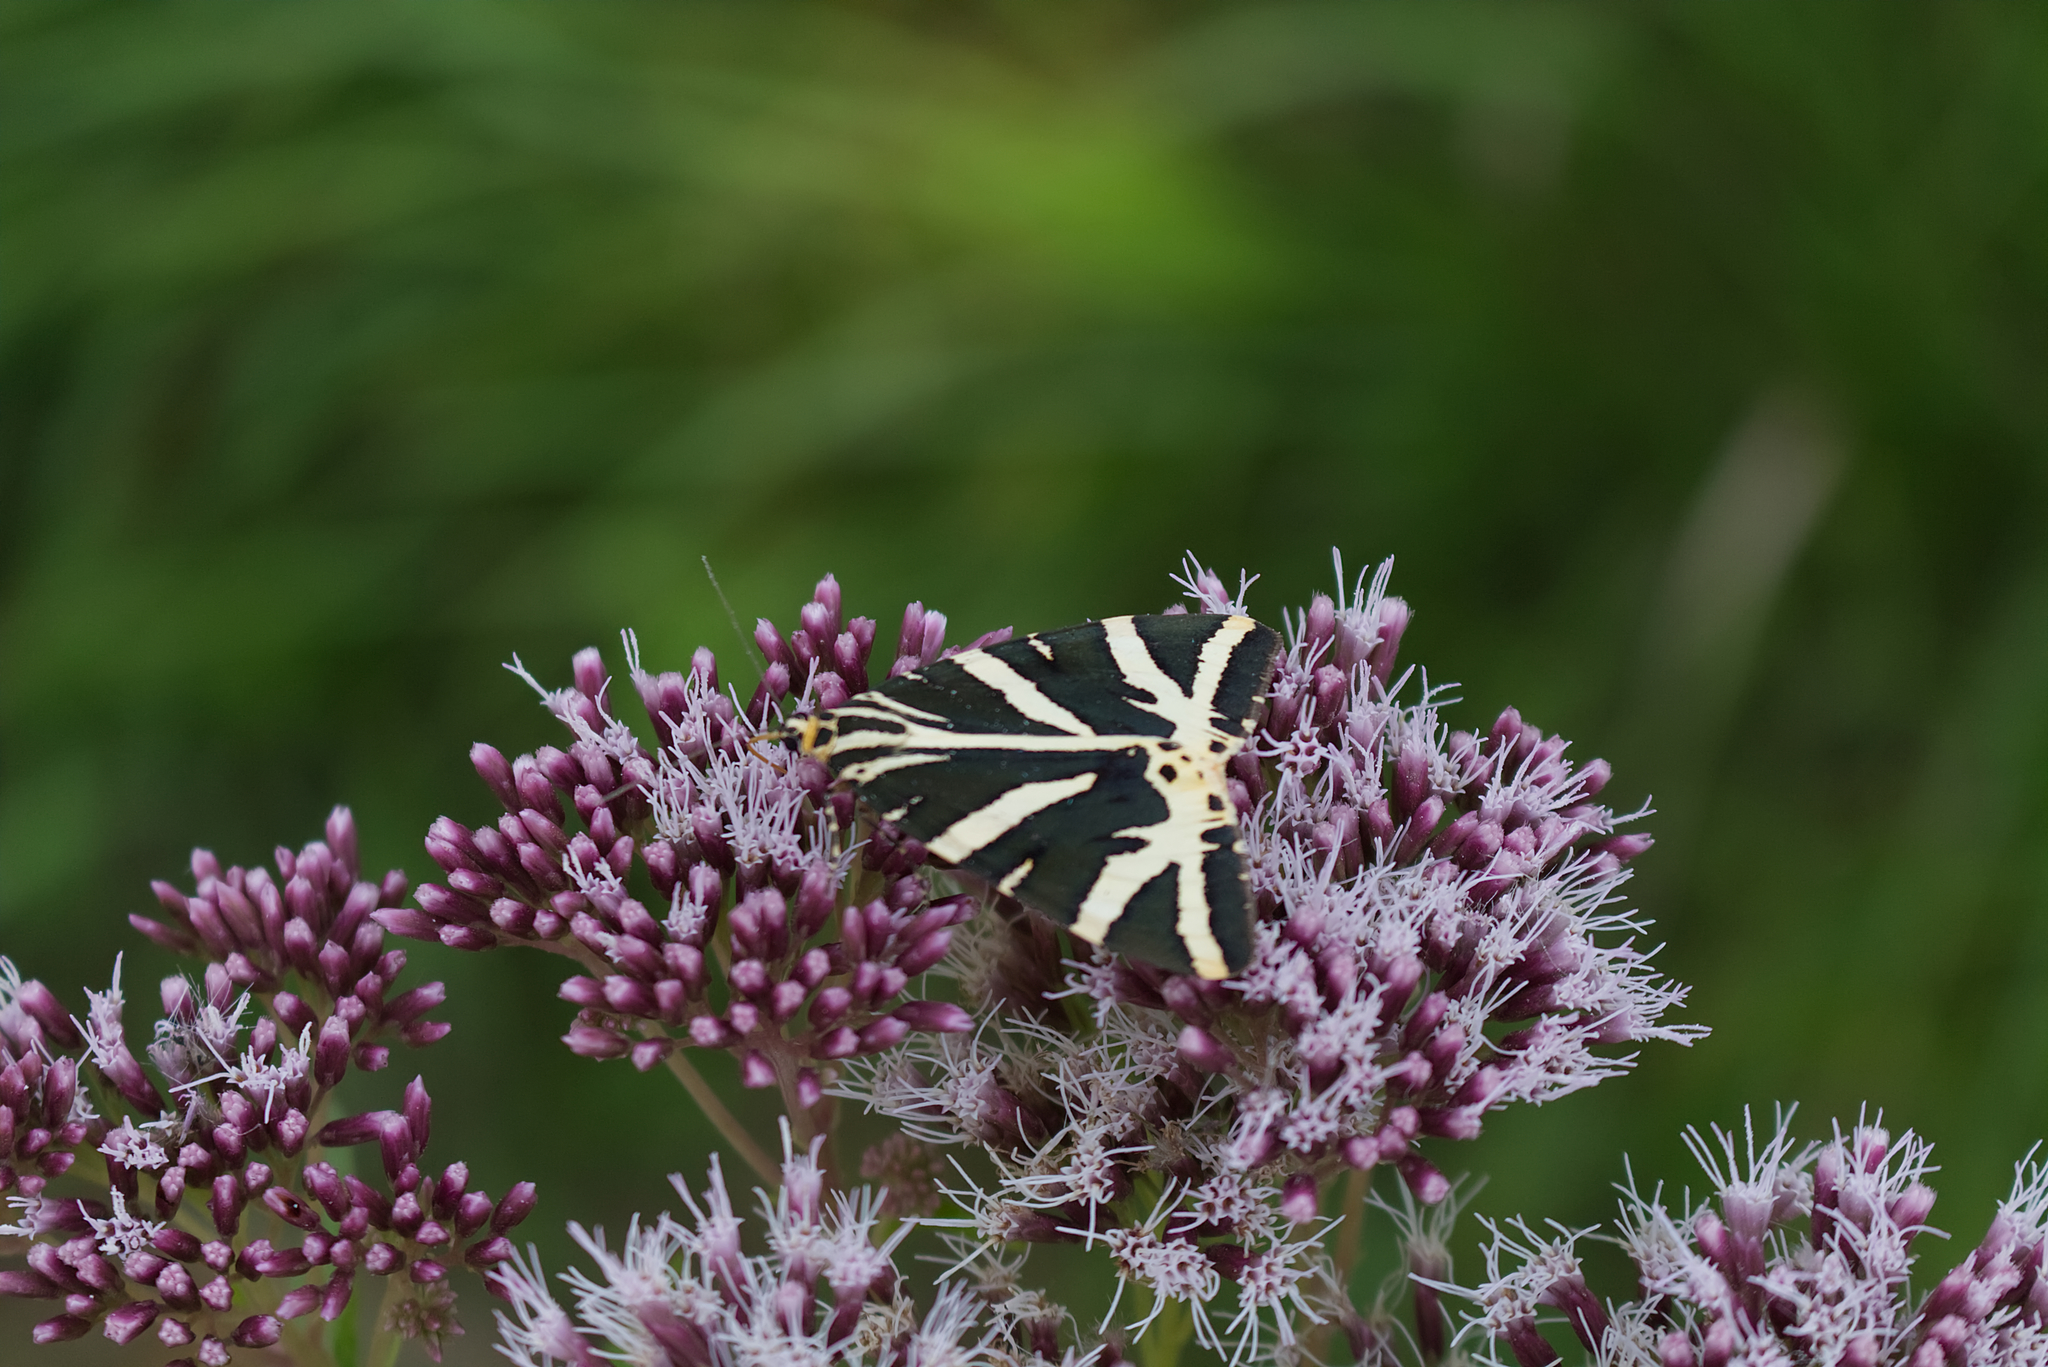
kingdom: Animalia
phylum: Arthropoda
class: Insecta
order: Lepidoptera
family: Erebidae
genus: Euplagia
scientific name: Euplagia quadripunctaria
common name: Jersey tiger
